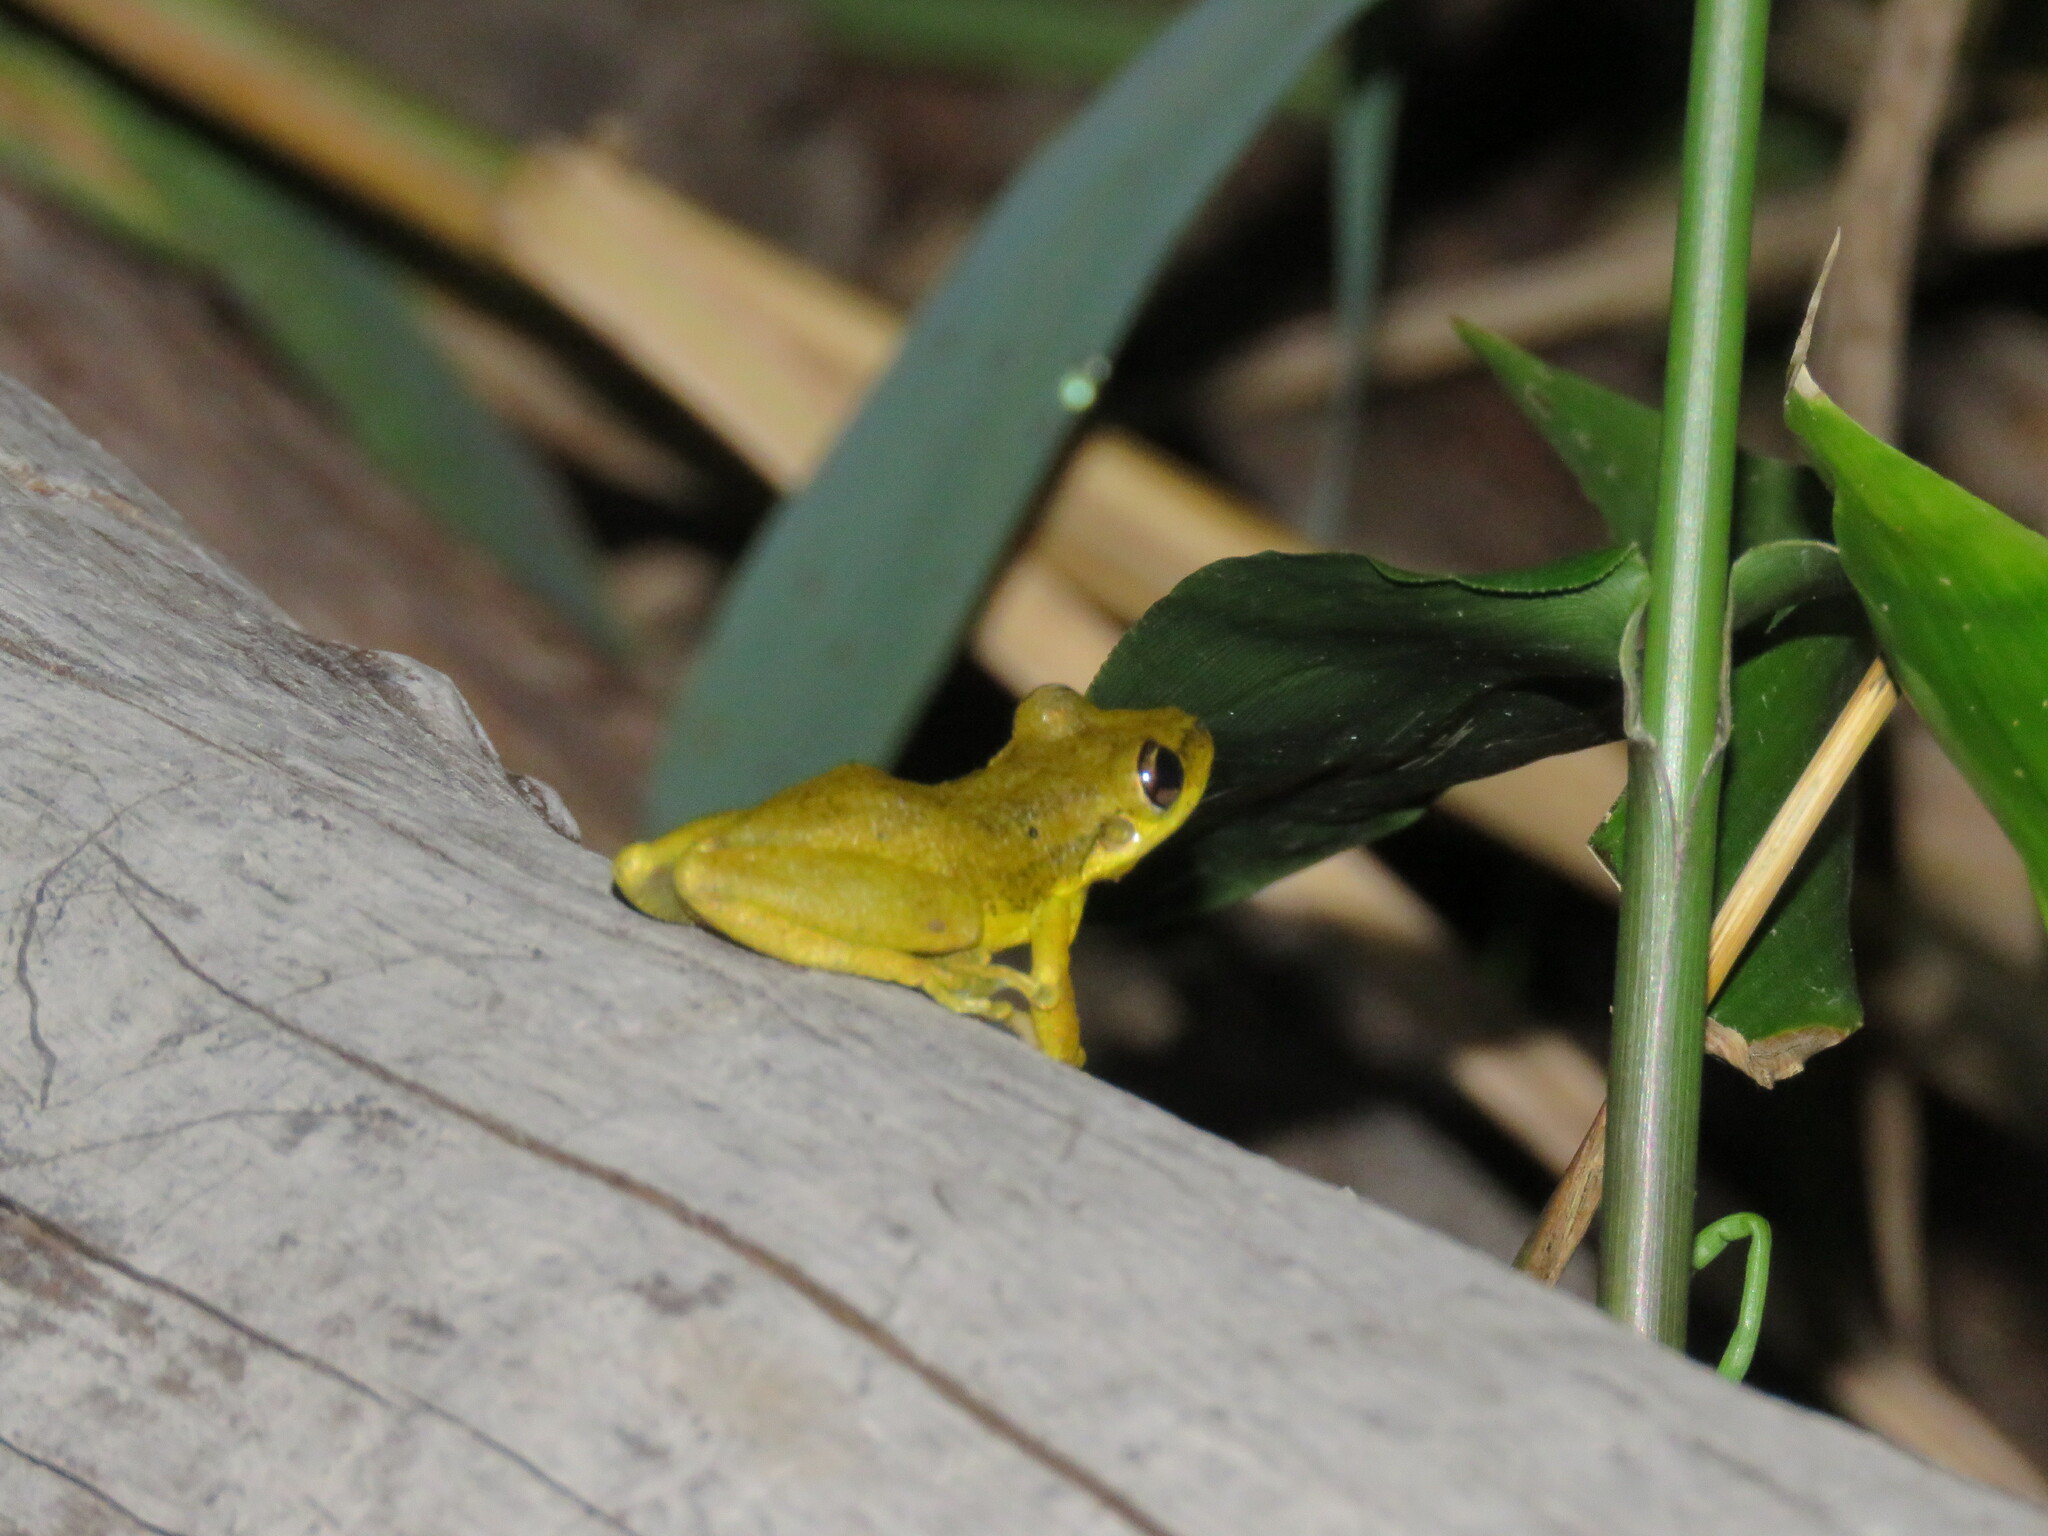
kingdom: Animalia
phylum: Chordata
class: Amphibia
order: Anura
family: Hylidae
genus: Scinax
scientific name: Scinax ruber
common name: Red snouted treefrog
